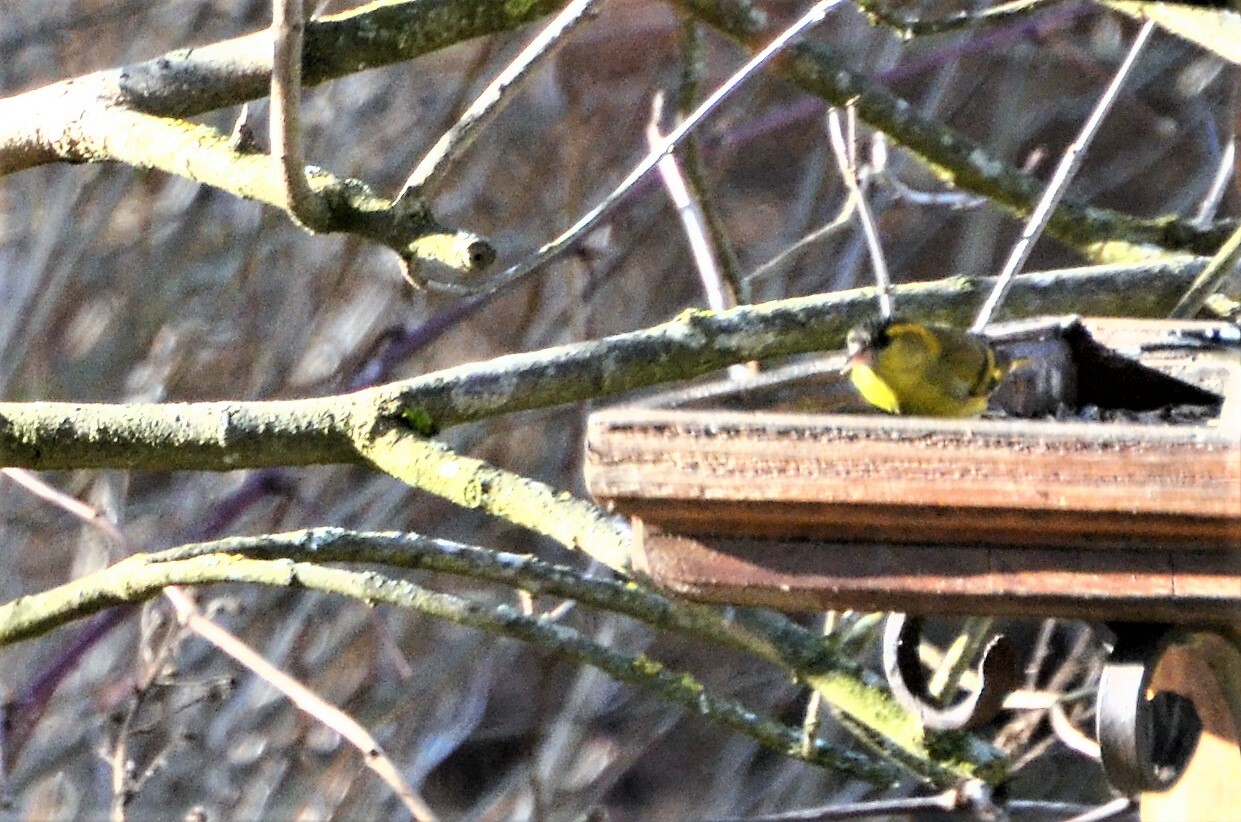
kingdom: Animalia
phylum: Chordata
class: Aves
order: Passeriformes
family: Fringillidae
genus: Spinus
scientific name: Spinus spinus
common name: Eurasian siskin
